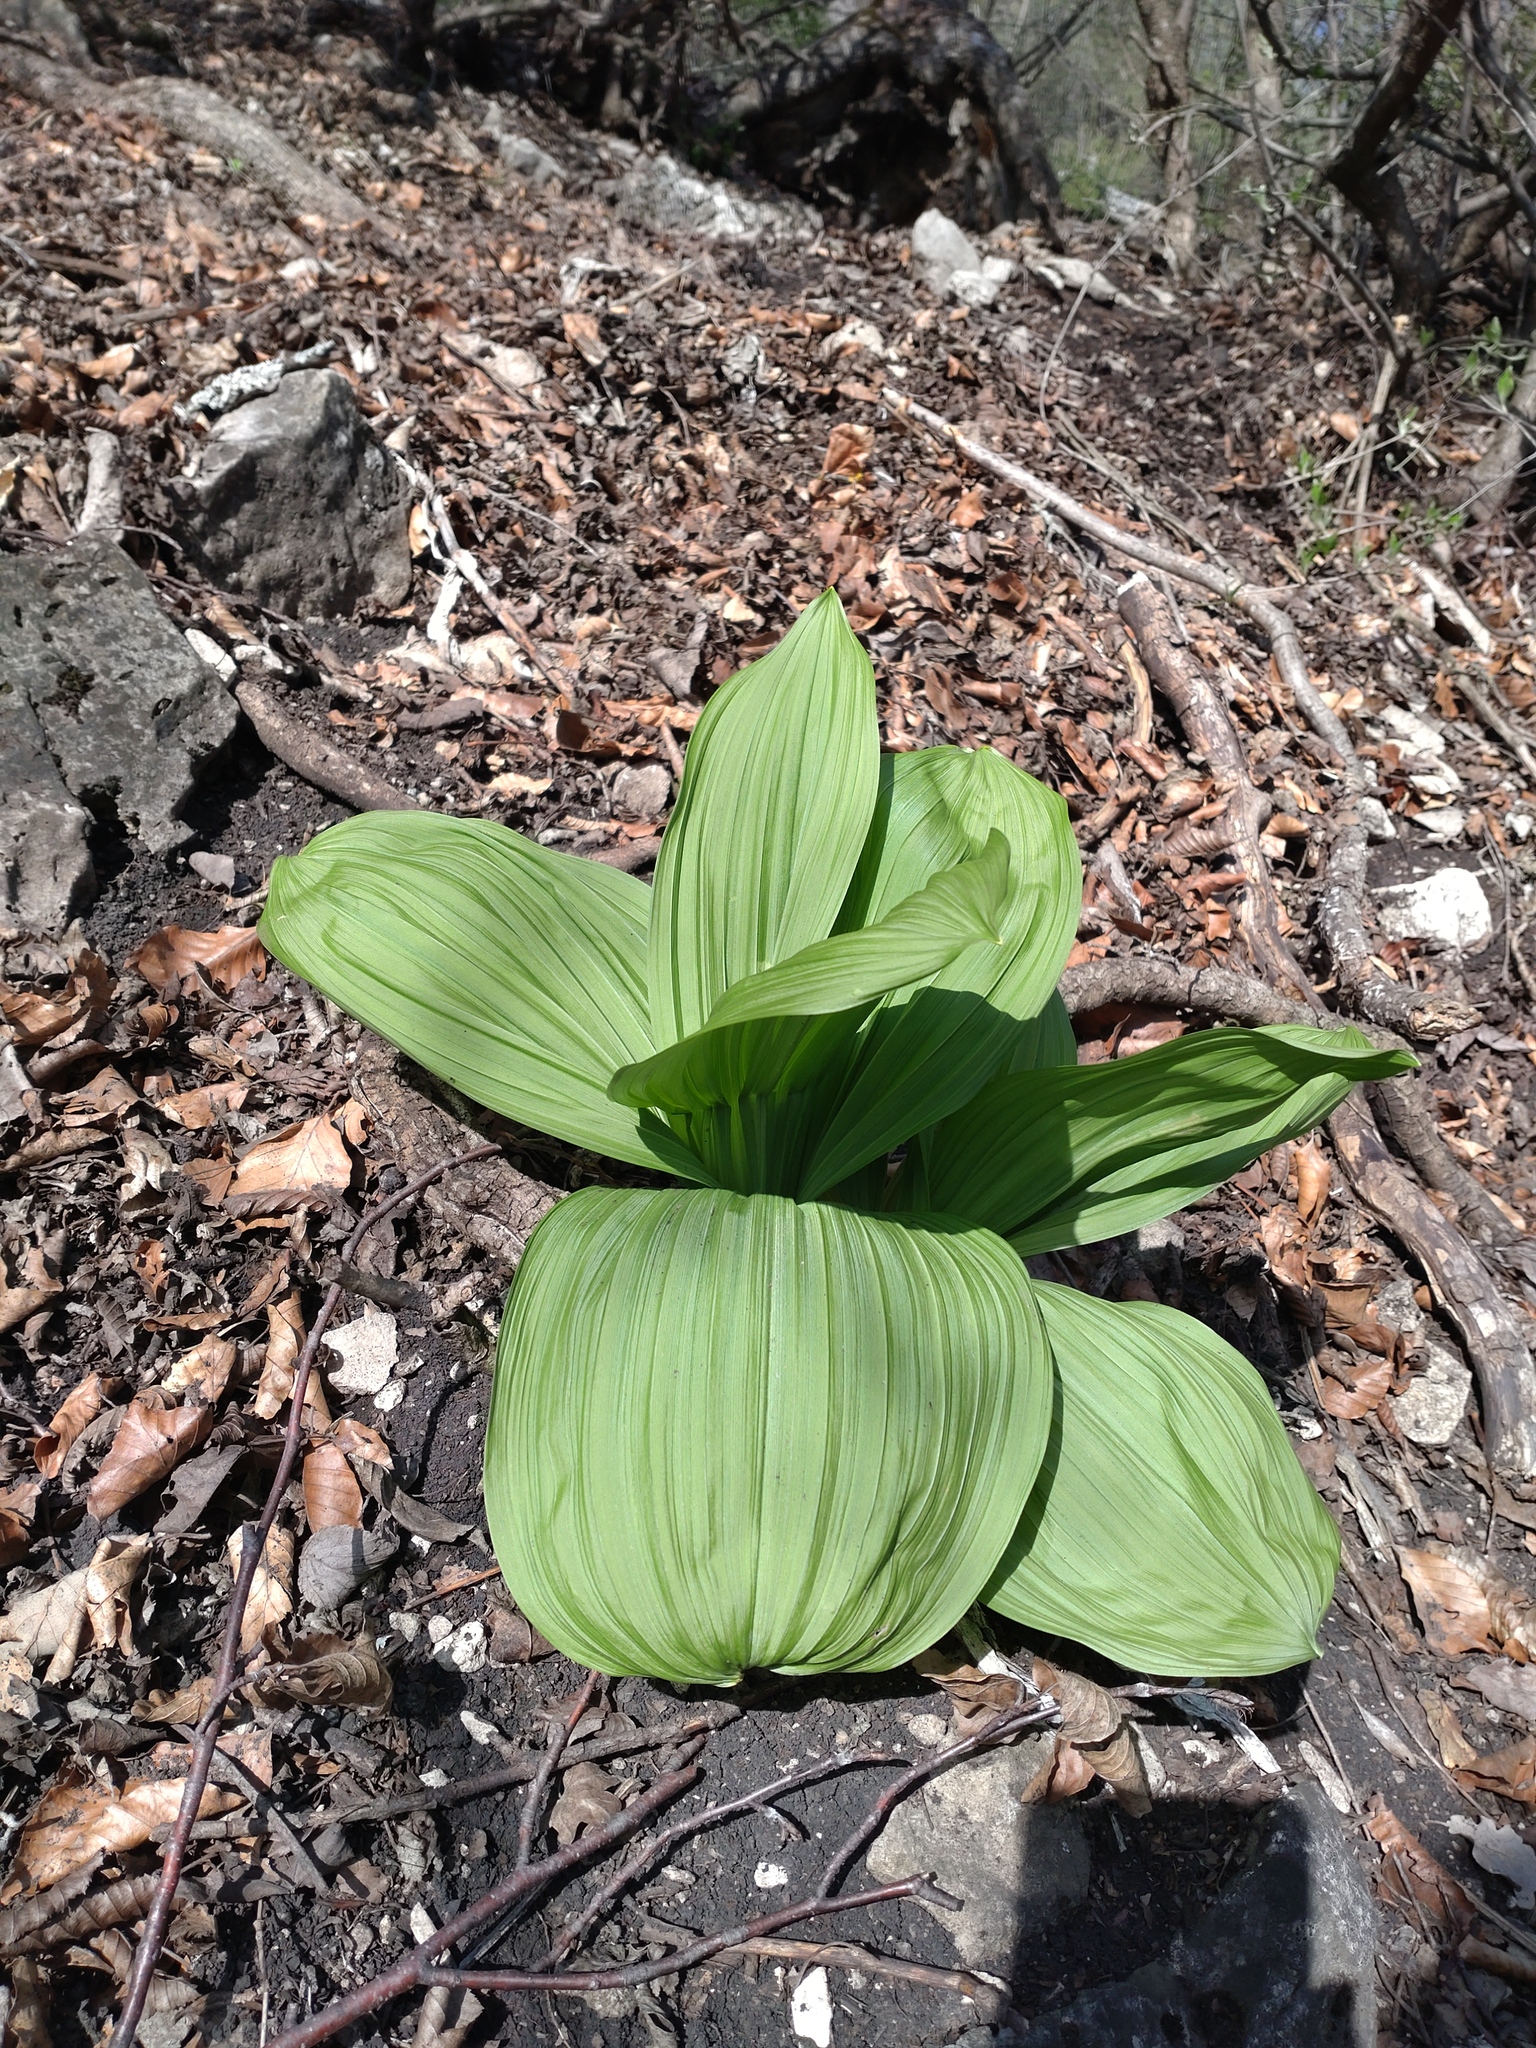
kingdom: Plantae
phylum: Tracheophyta
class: Liliopsida
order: Liliales
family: Melanthiaceae
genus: Veratrum
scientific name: Veratrum nigrum
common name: Black veratrum
